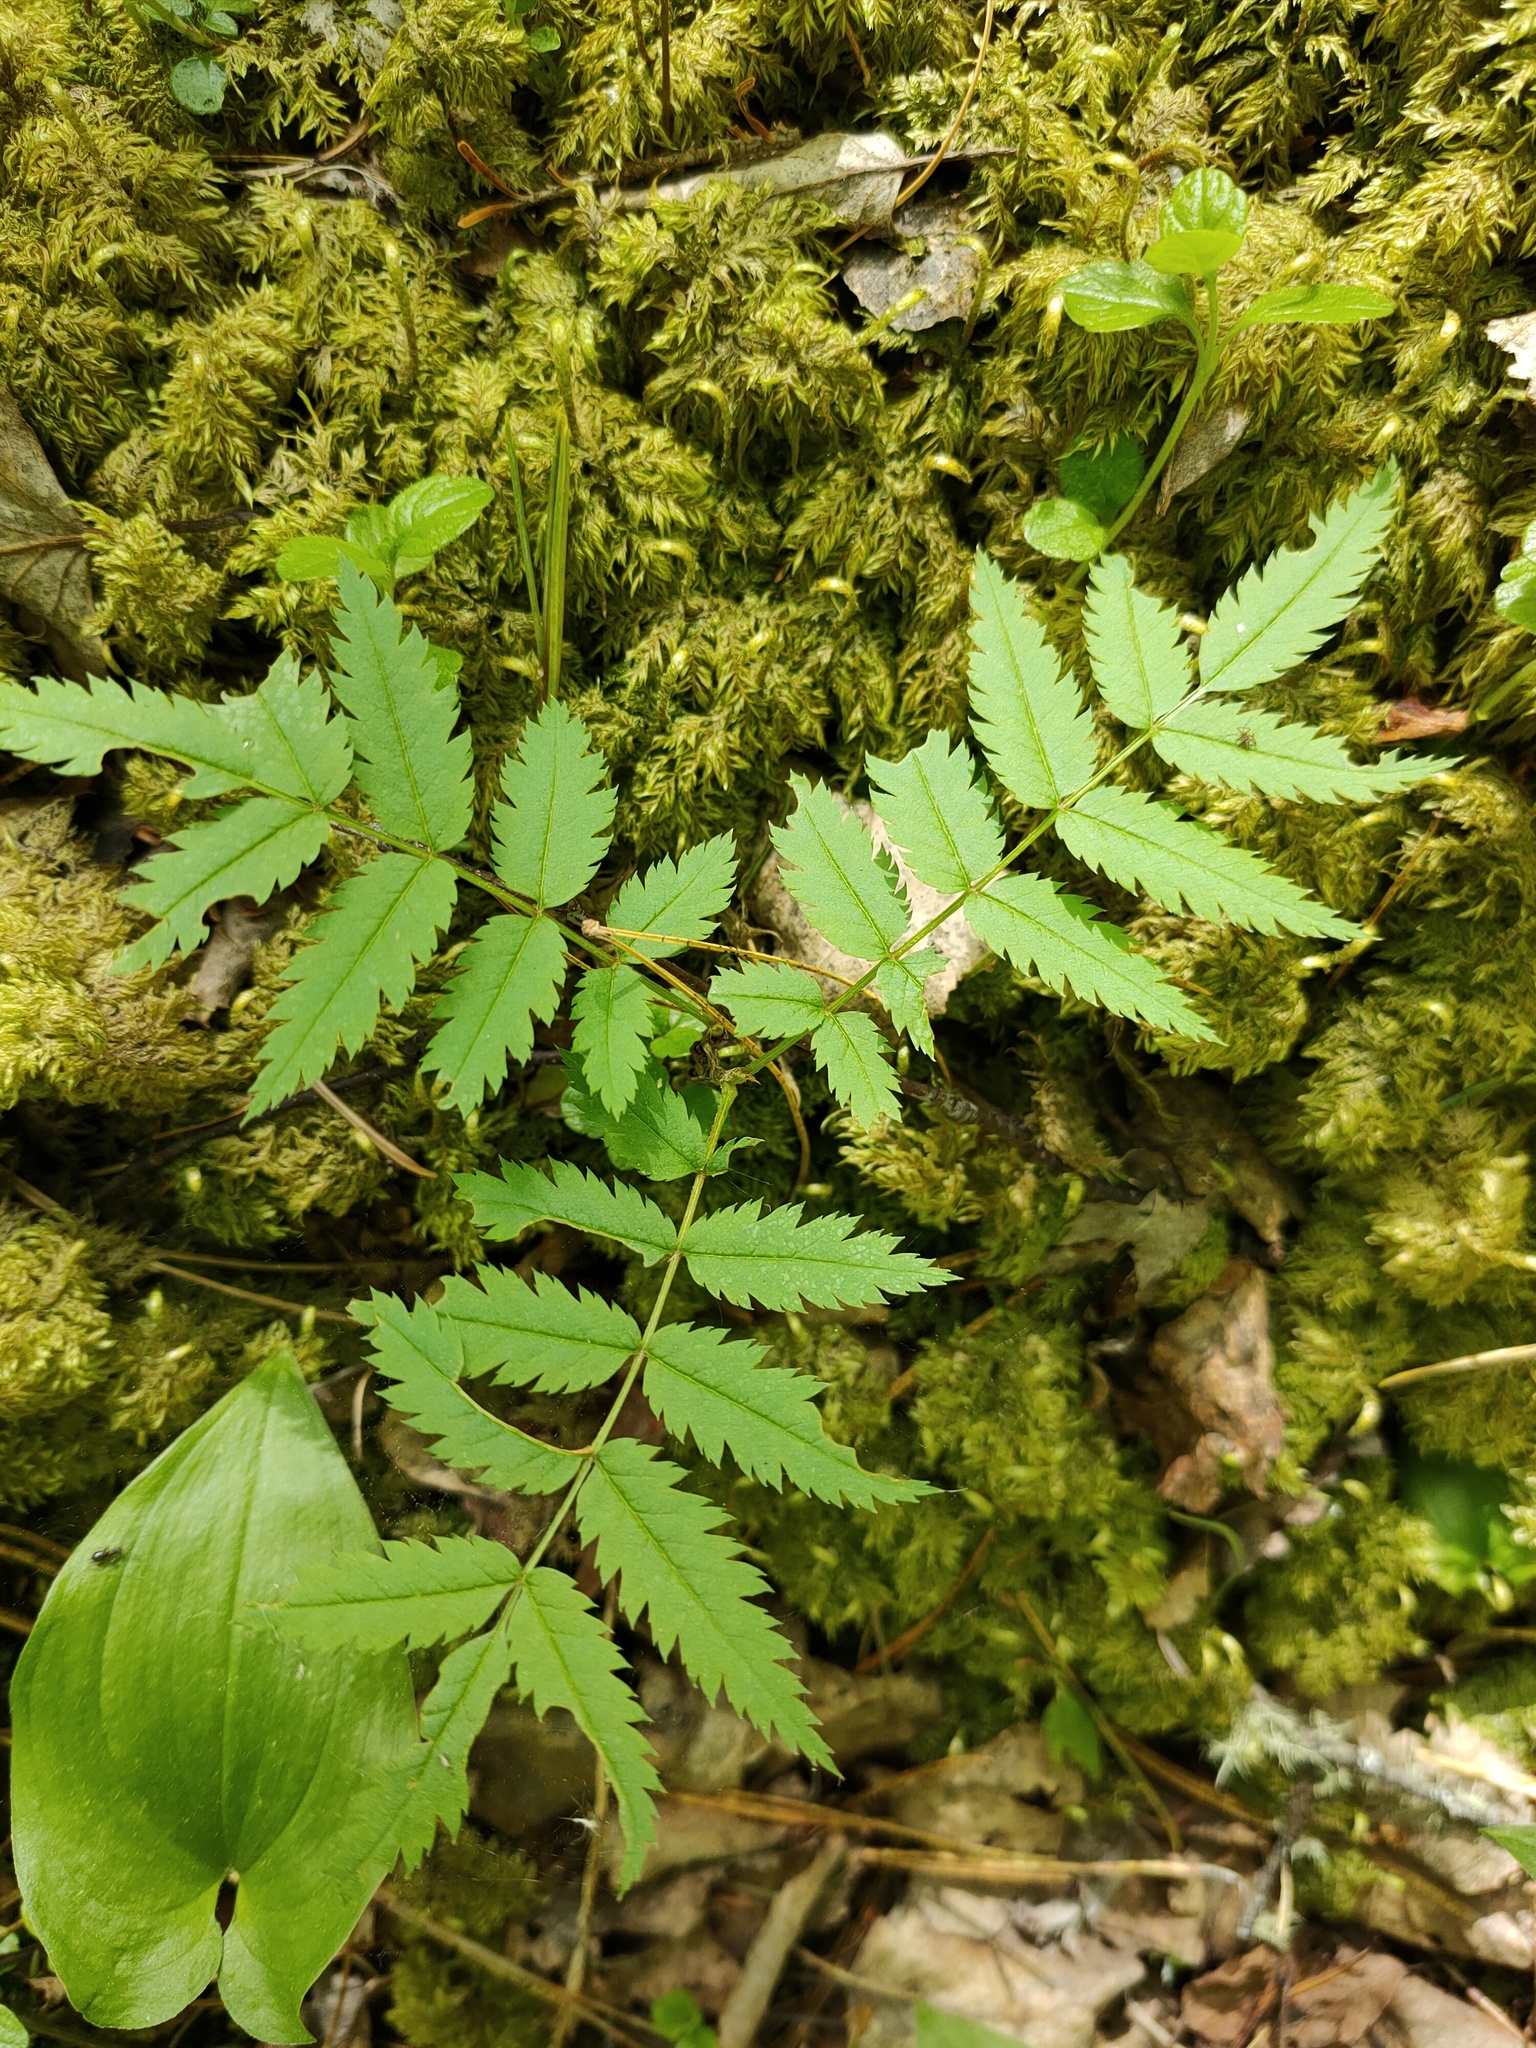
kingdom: Plantae
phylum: Tracheophyta
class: Magnoliopsida
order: Rosales
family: Rosaceae
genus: Sorbus
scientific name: Sorbus aucuparia
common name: Rowan
